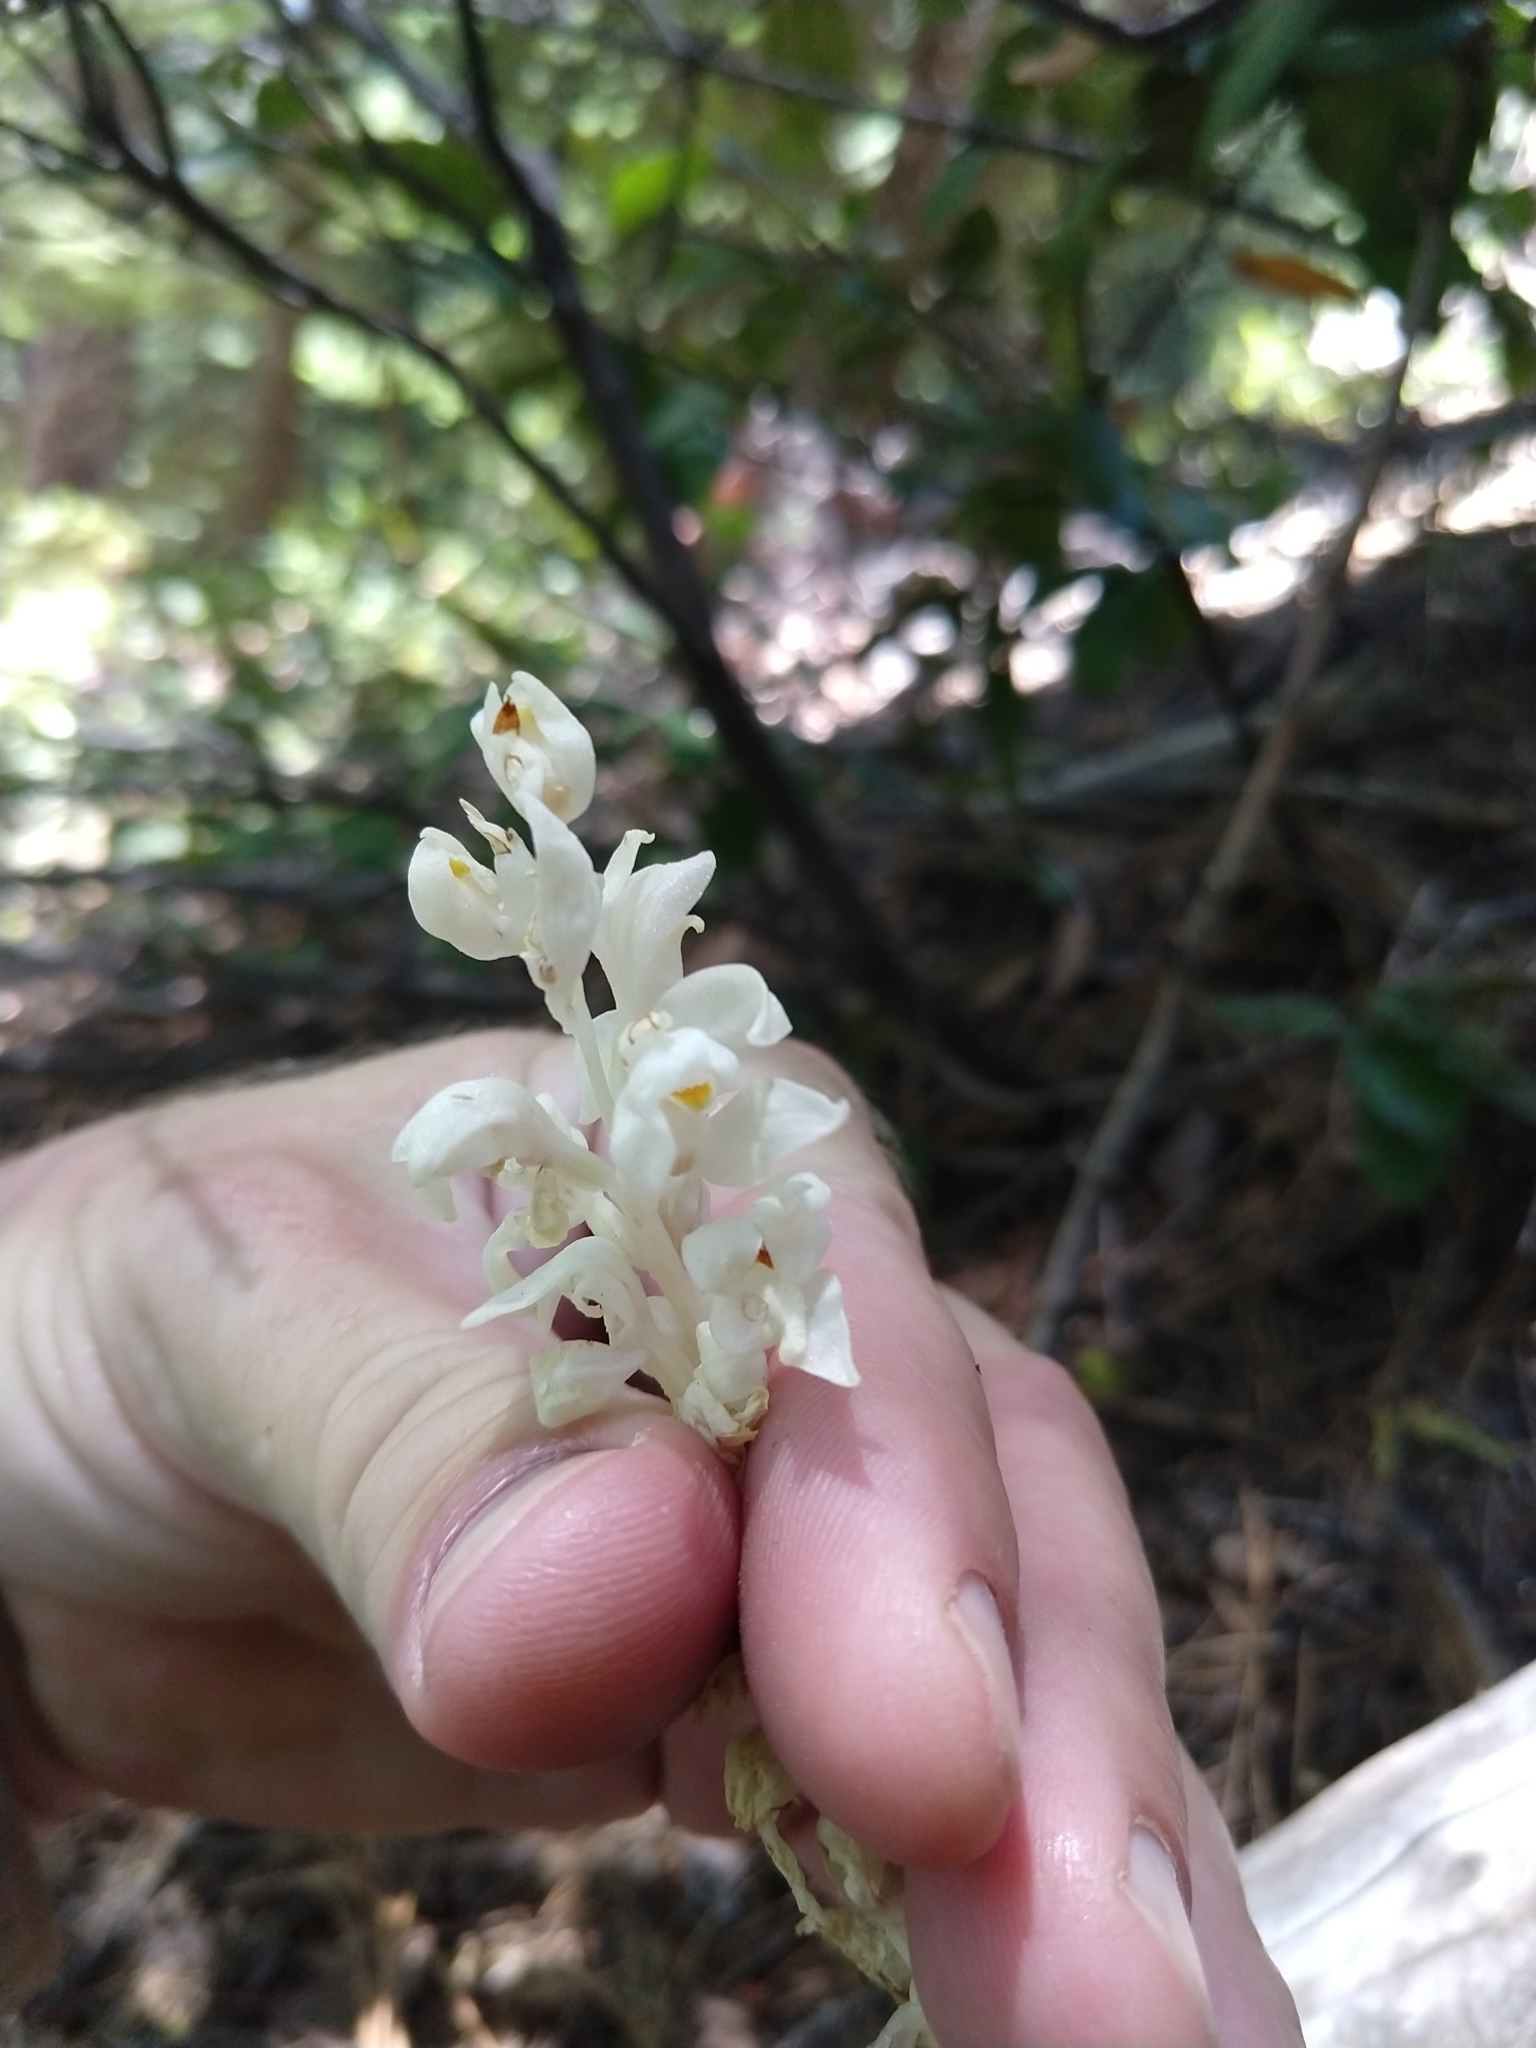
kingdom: Plantae
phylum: Tracheophyta
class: Liliopsida
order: Asparagales
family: Orchidaceae
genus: Cephalanthera
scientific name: Cephalanthera austiniae
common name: Phantom orchid
